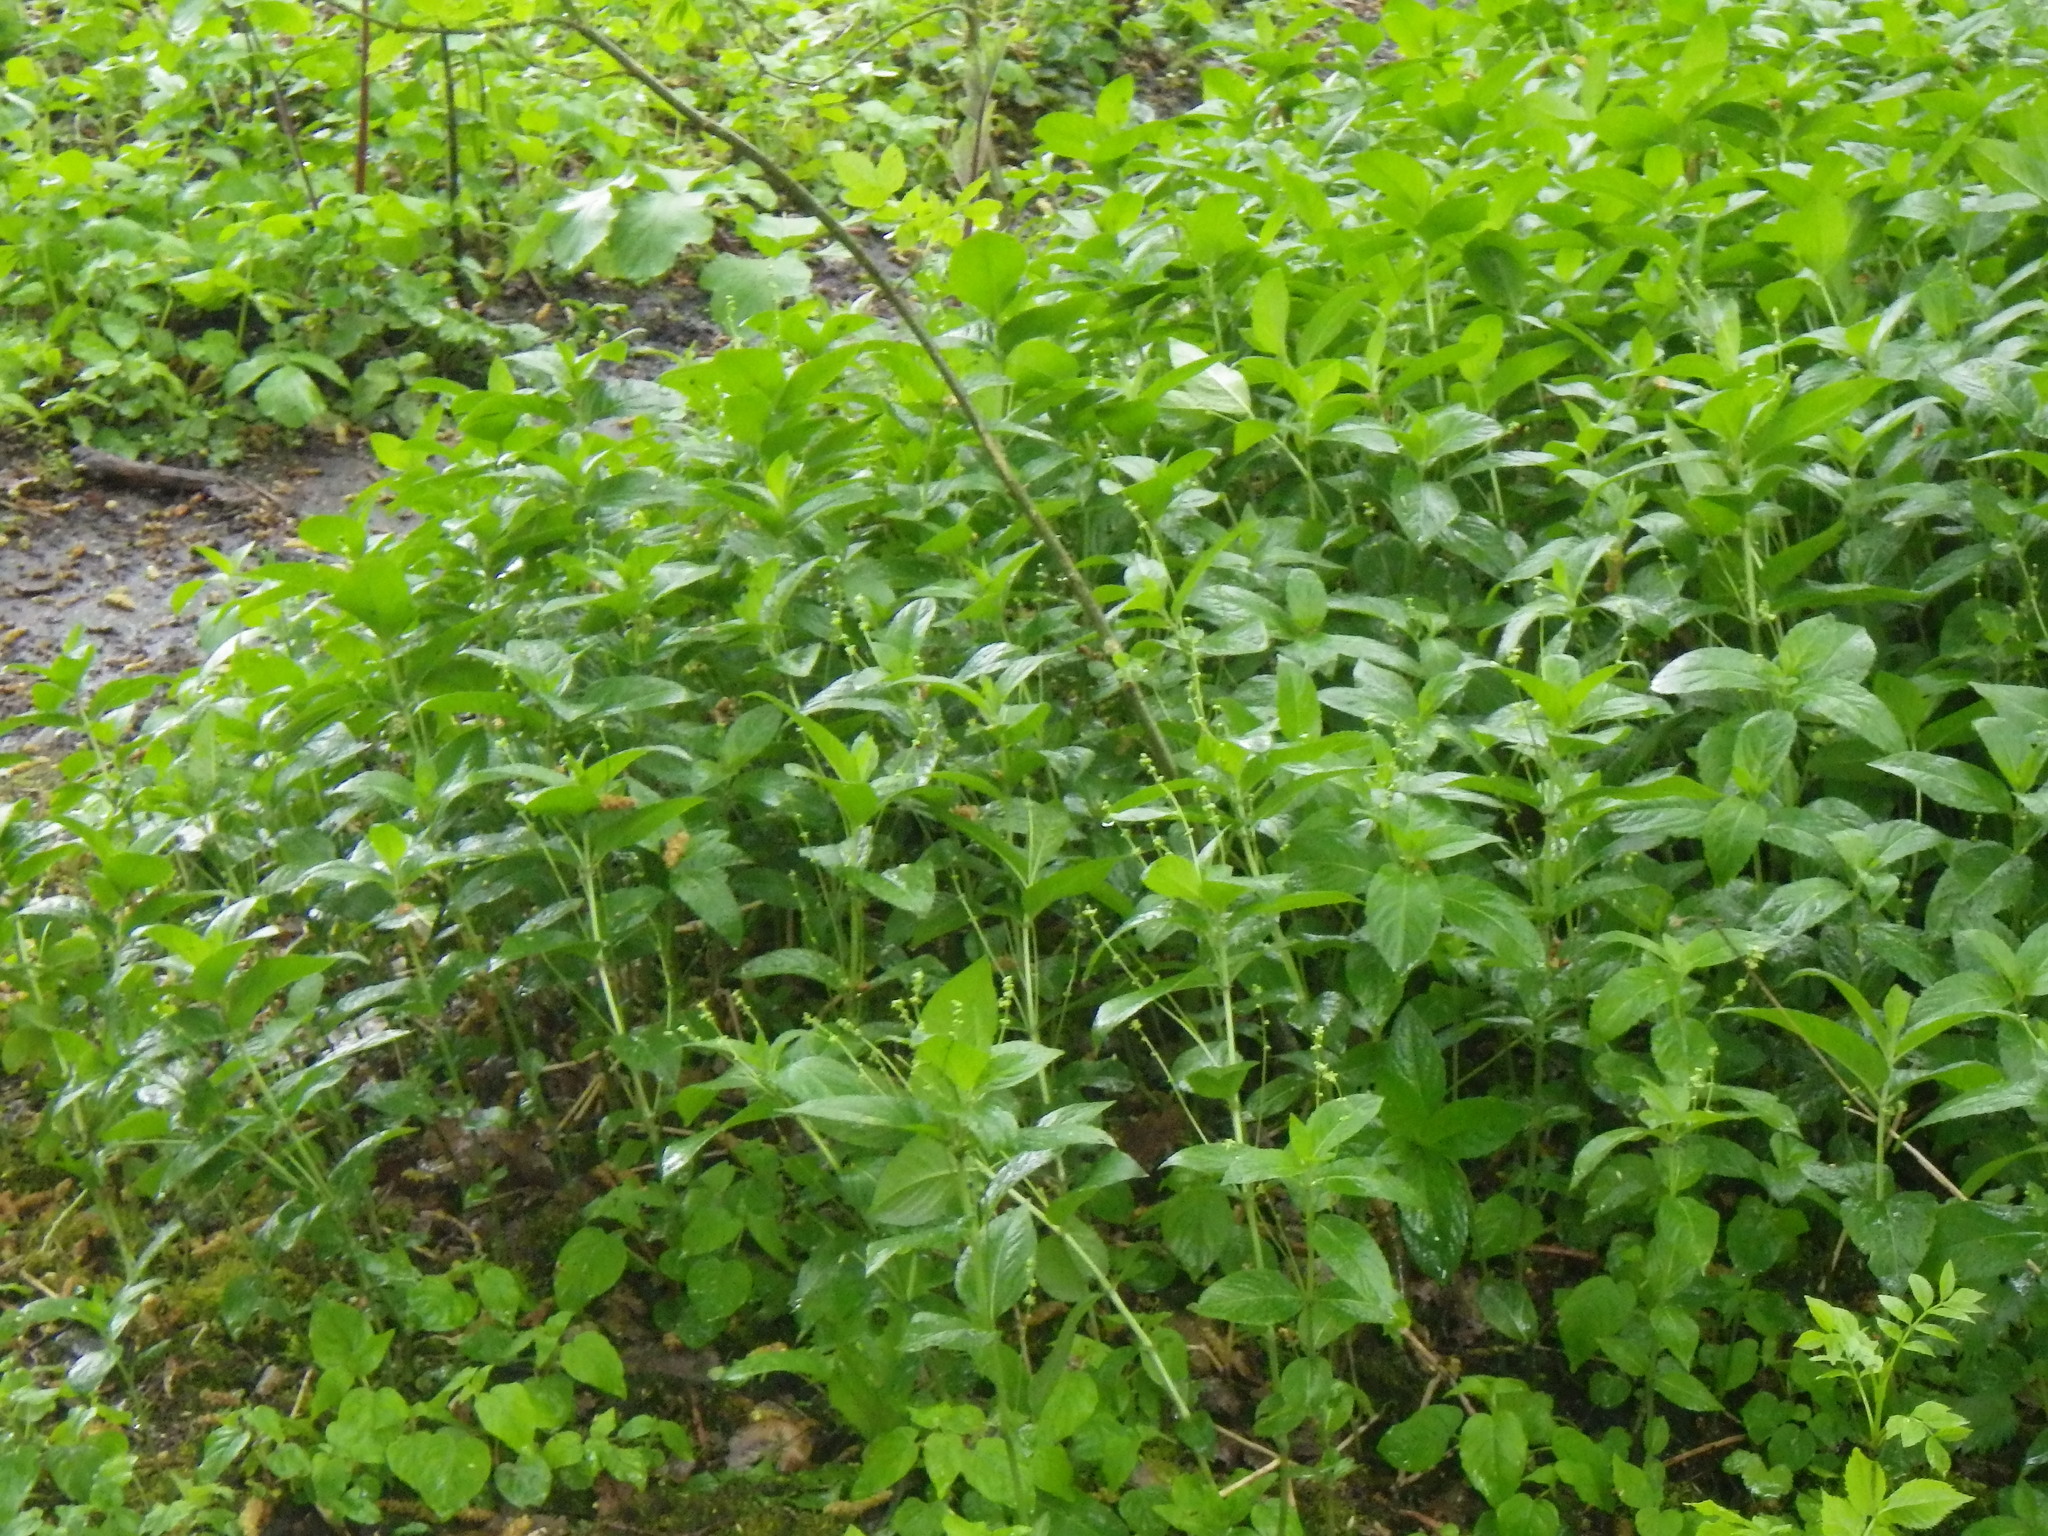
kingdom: Plantae
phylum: Tracheophyta
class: Magnoliopsida
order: Malpighiales
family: Euphorbiaceae
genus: Mercurialis
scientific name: Mercurialis perennis
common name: Dog mercury
